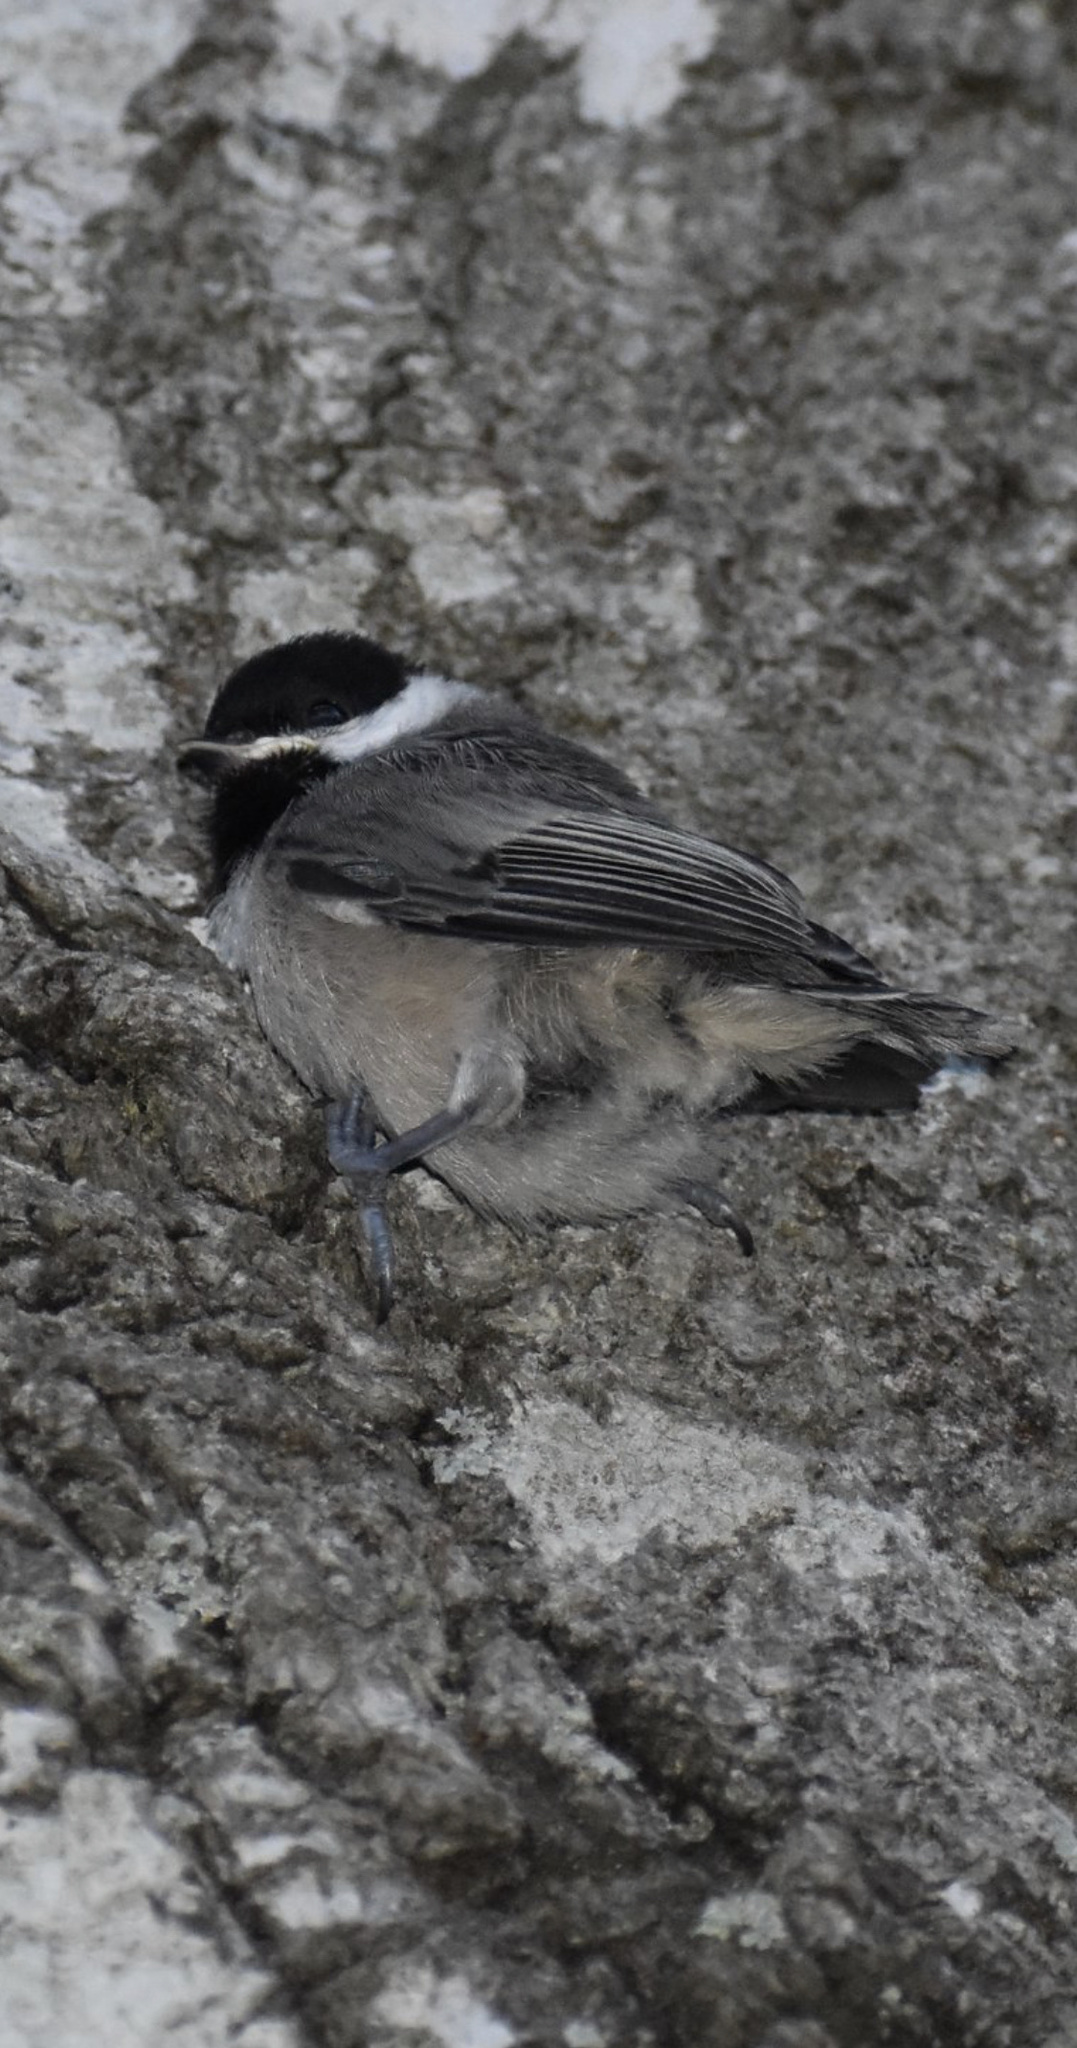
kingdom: Animalia
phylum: Chordata
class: Aves
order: Passeriformes
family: Paridae
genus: Poecile
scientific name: Poecile carolinensis
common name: Carolina chickadee
